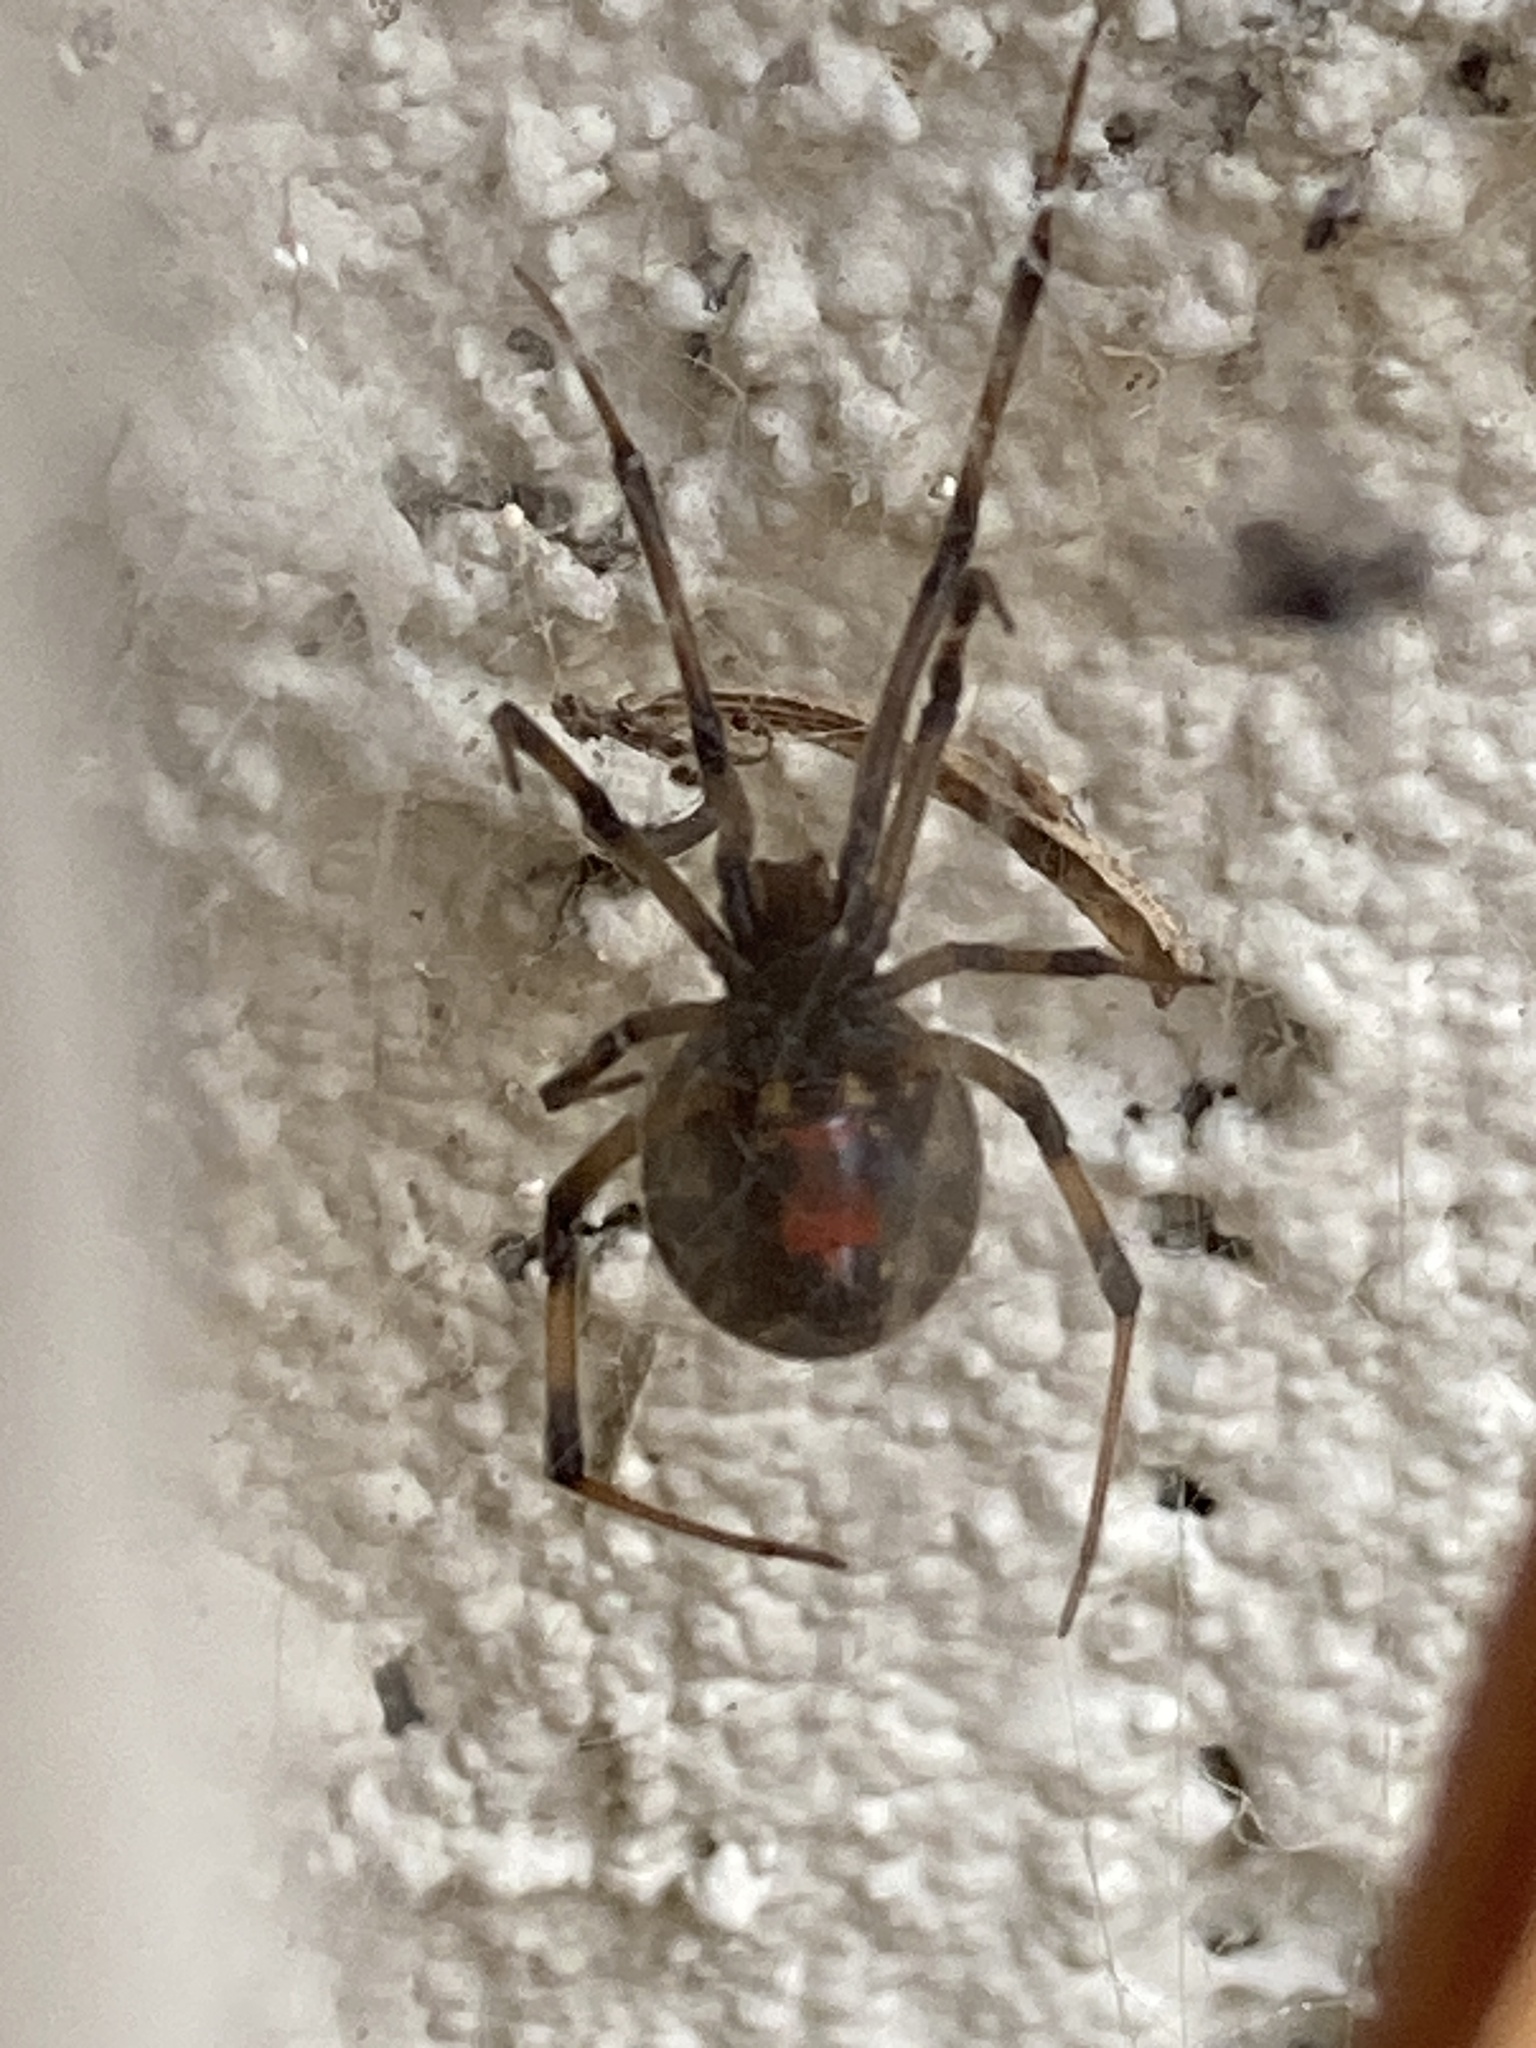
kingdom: Animalia
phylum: Arthropoda
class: Arachnida
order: Araneae
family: Theridiidae
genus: Latrodectus
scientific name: Latrodectus geometricus
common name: Brown widow spider
